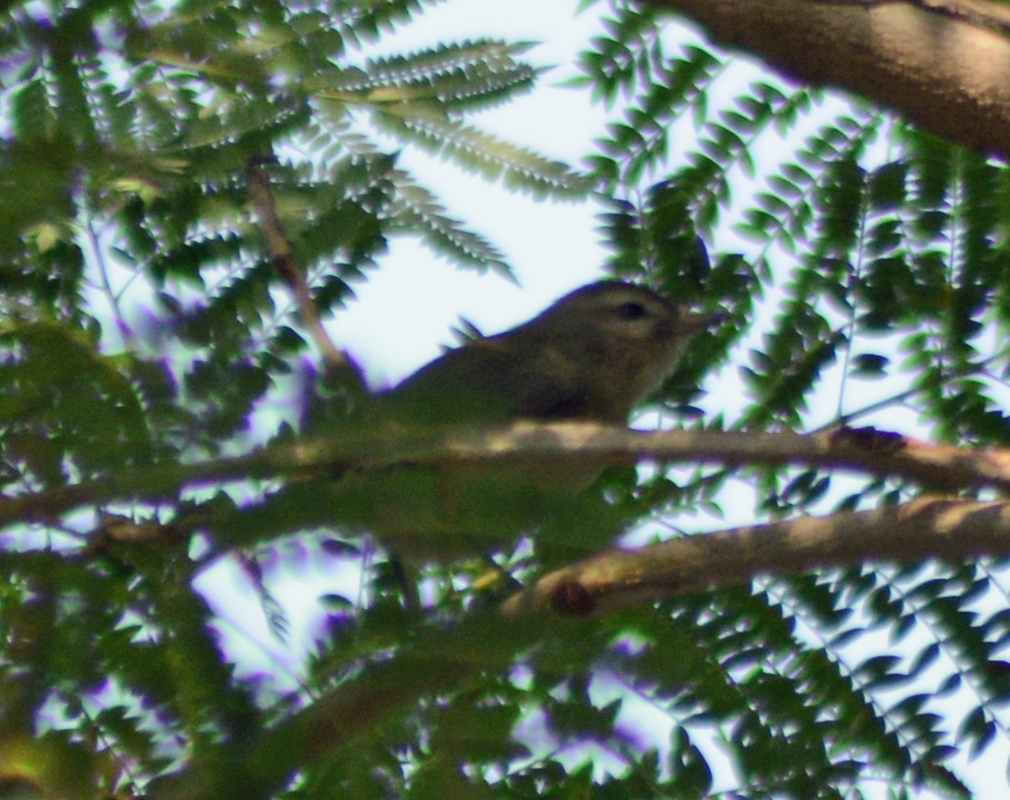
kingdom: Animalia
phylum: Chordata
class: Aves
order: Passeriformes
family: Vireonidae
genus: Vireo
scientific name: Vireo gilvus
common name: Warbling vireo
